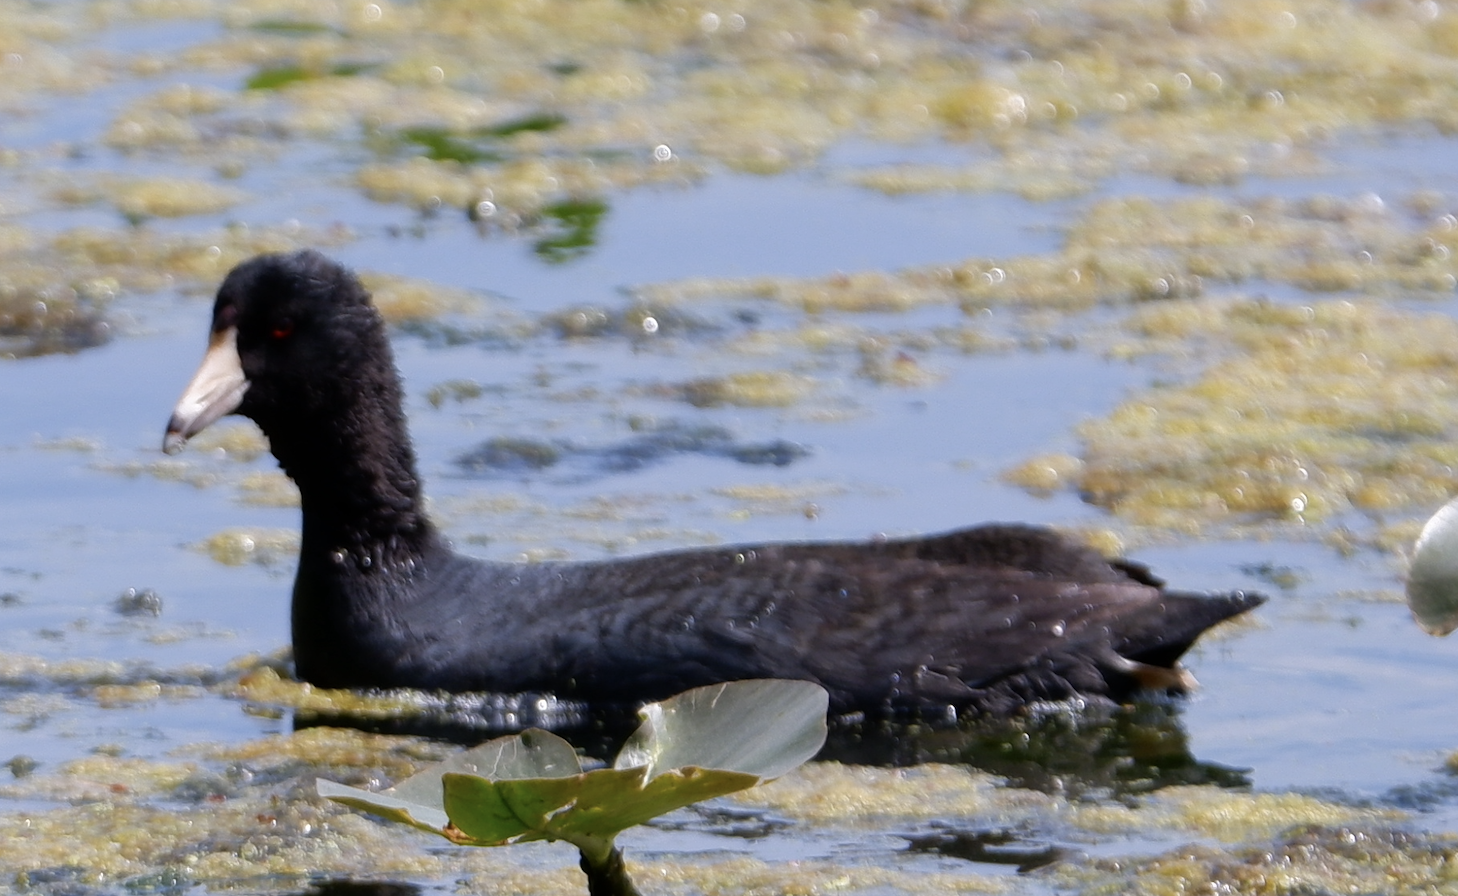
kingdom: Animalia
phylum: Chordata
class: Aves
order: Gruiformes
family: Rallidae
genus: Fulica
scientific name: Fulica americana
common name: American coot
